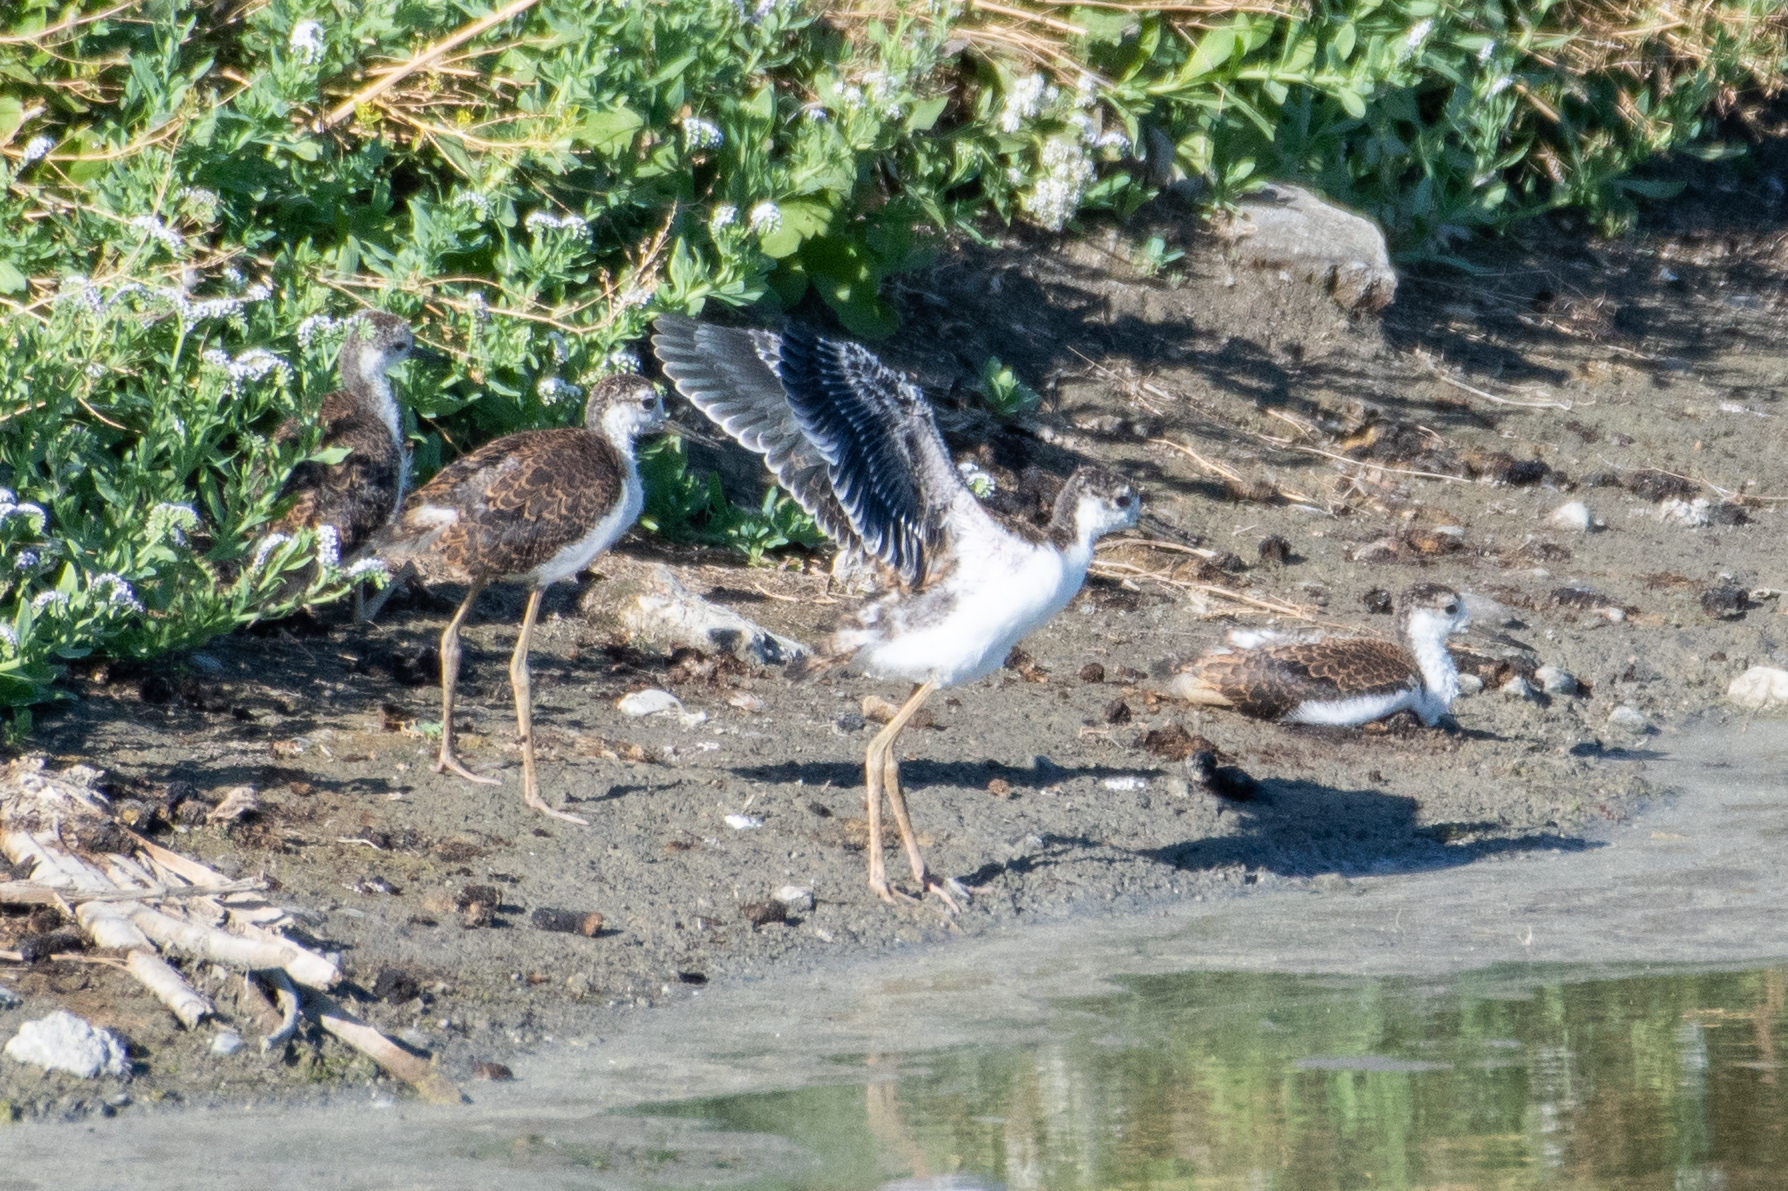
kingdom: Animalia
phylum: Chordata
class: Aves
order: Charadriiformes
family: Recurvirostridae
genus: Himantopus
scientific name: Himantopus mexicanus
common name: Black-necked stilt
